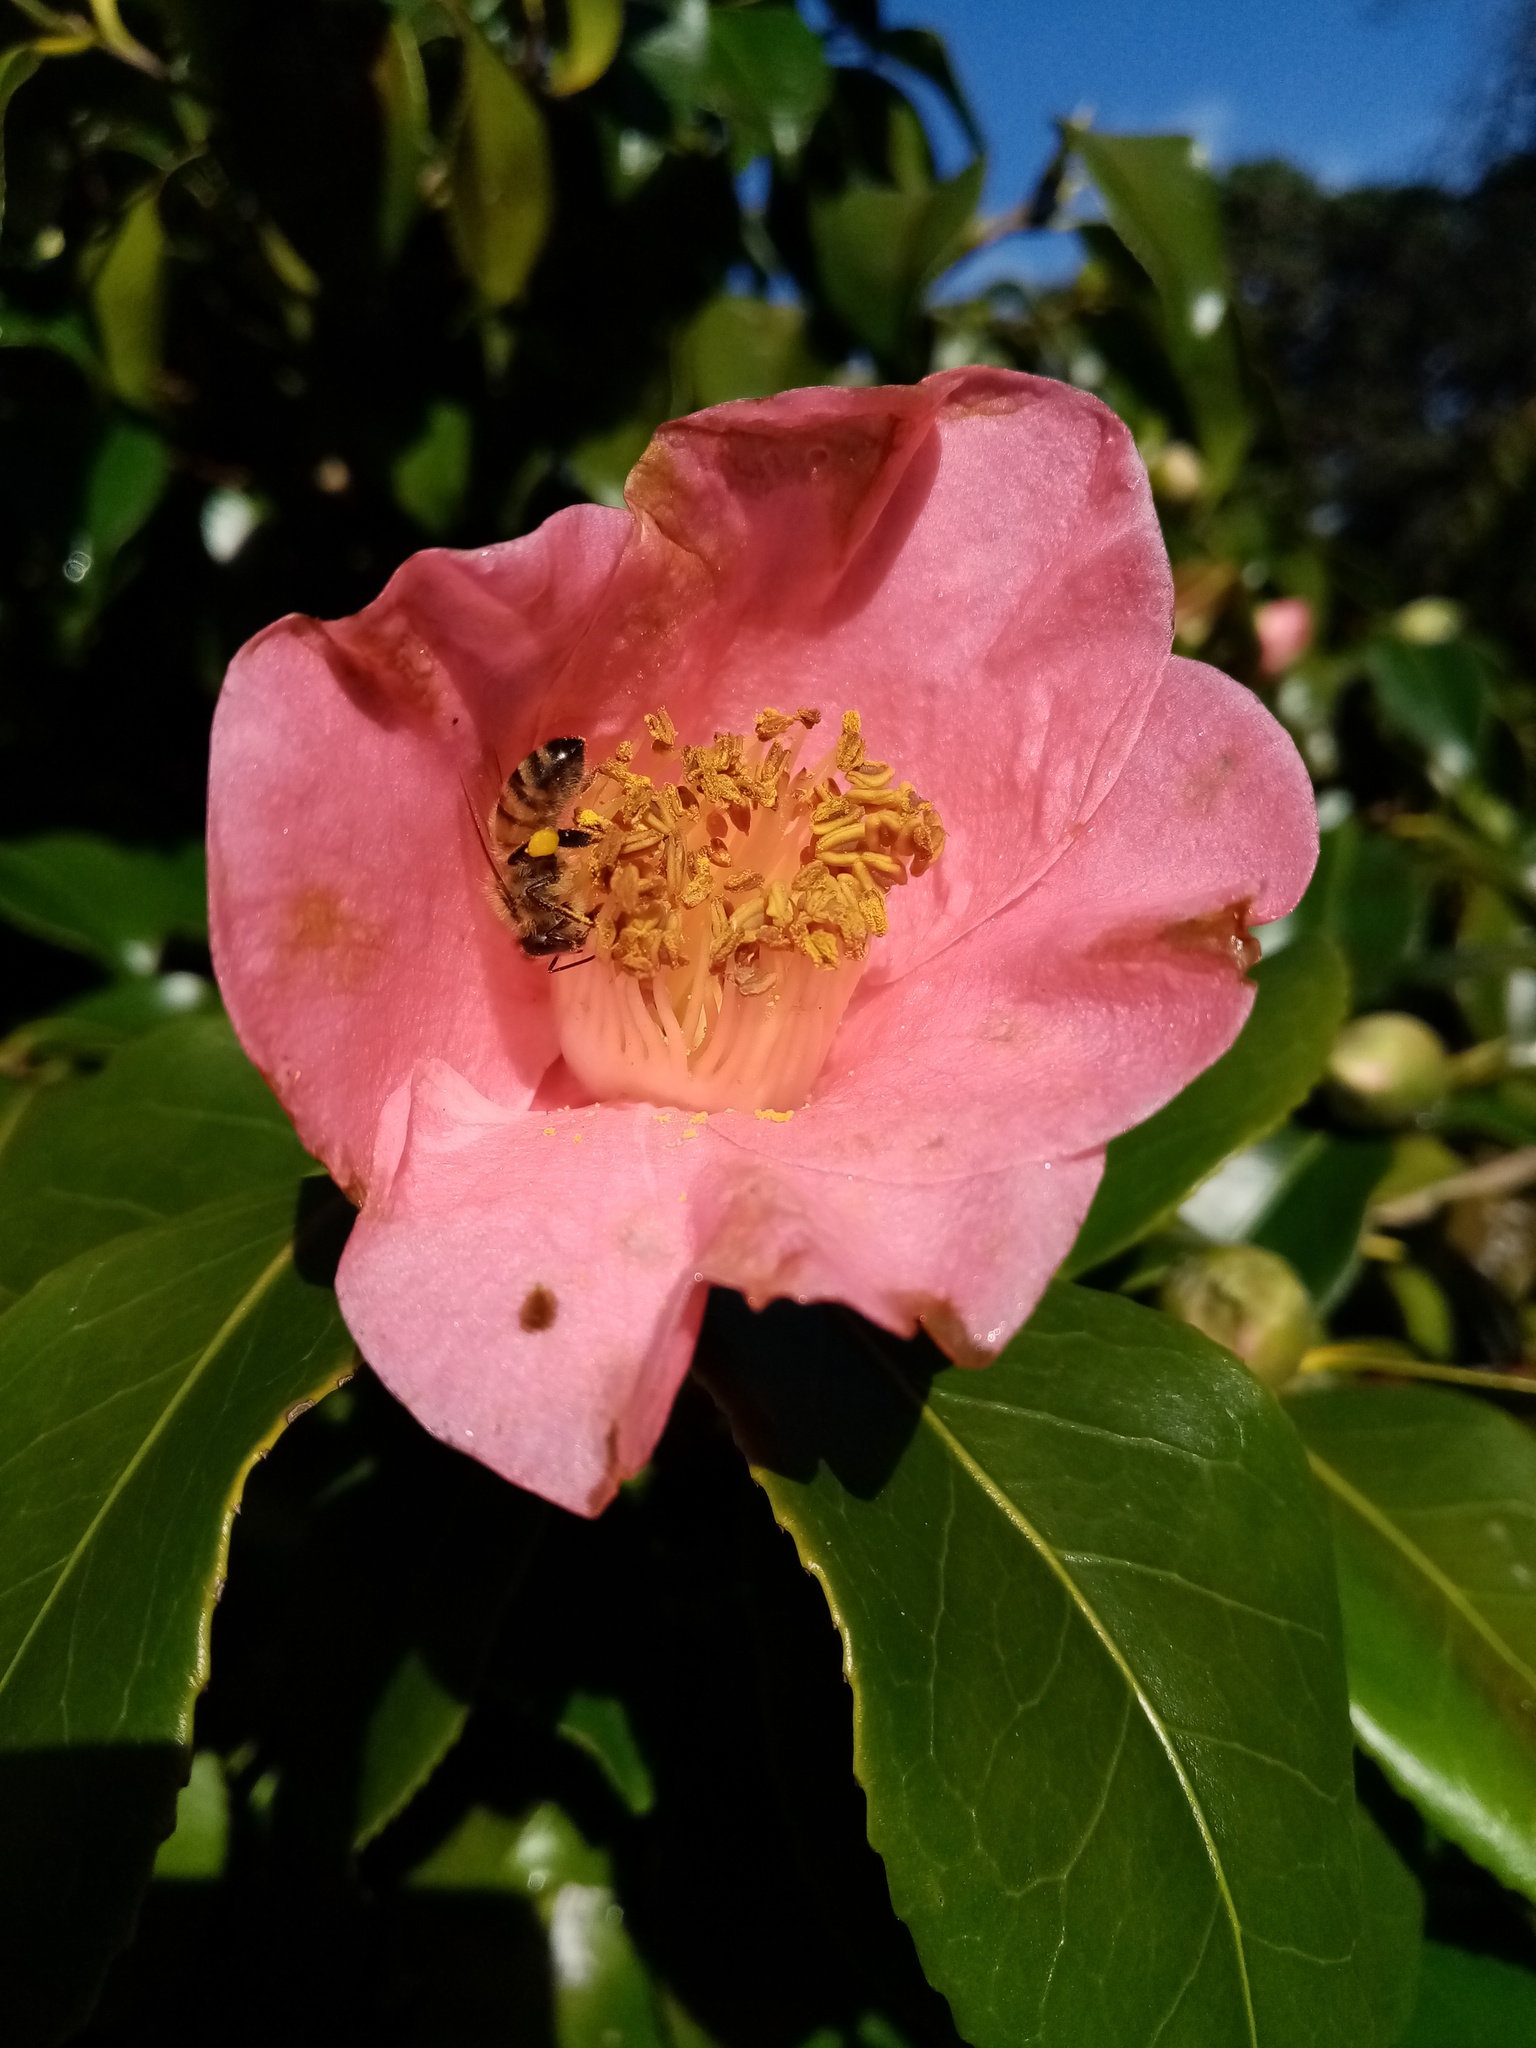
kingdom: Animalia
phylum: Arthropoda
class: Insecta
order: Hymenoptera
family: Apidae
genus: Apis
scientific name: Apis mellifera
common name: Honey bee
